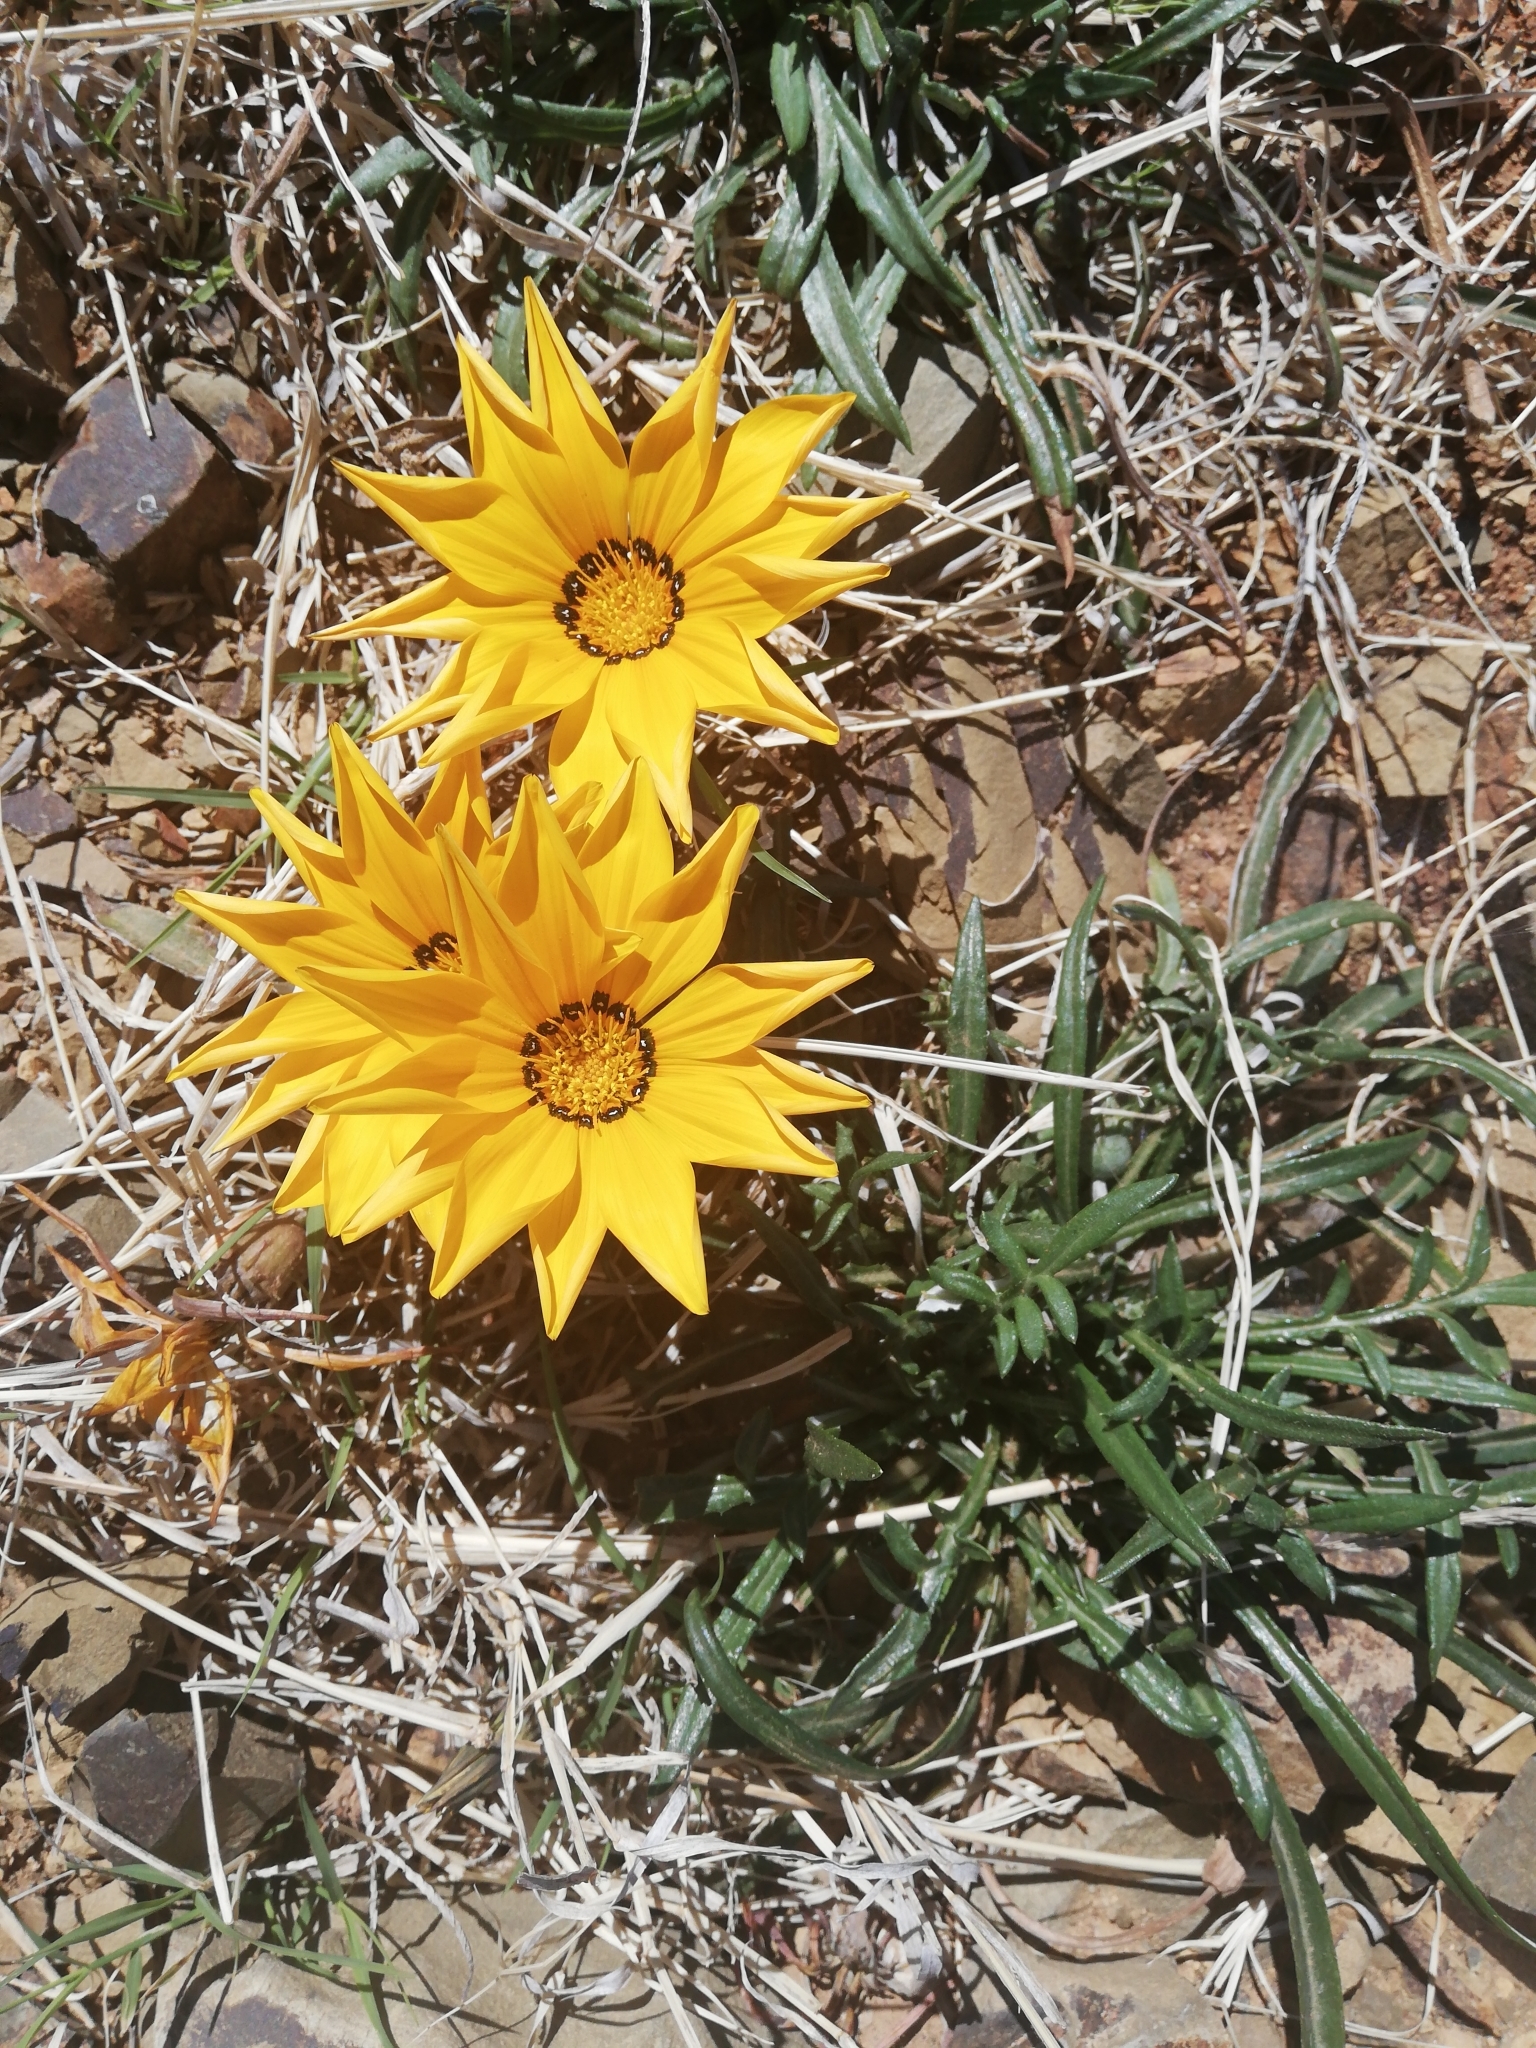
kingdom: Plantae
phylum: Tracheophyta
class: Magnoliopsida
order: Asterales
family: Asteraceae
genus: Gazania
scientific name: Gazania krebsiana
